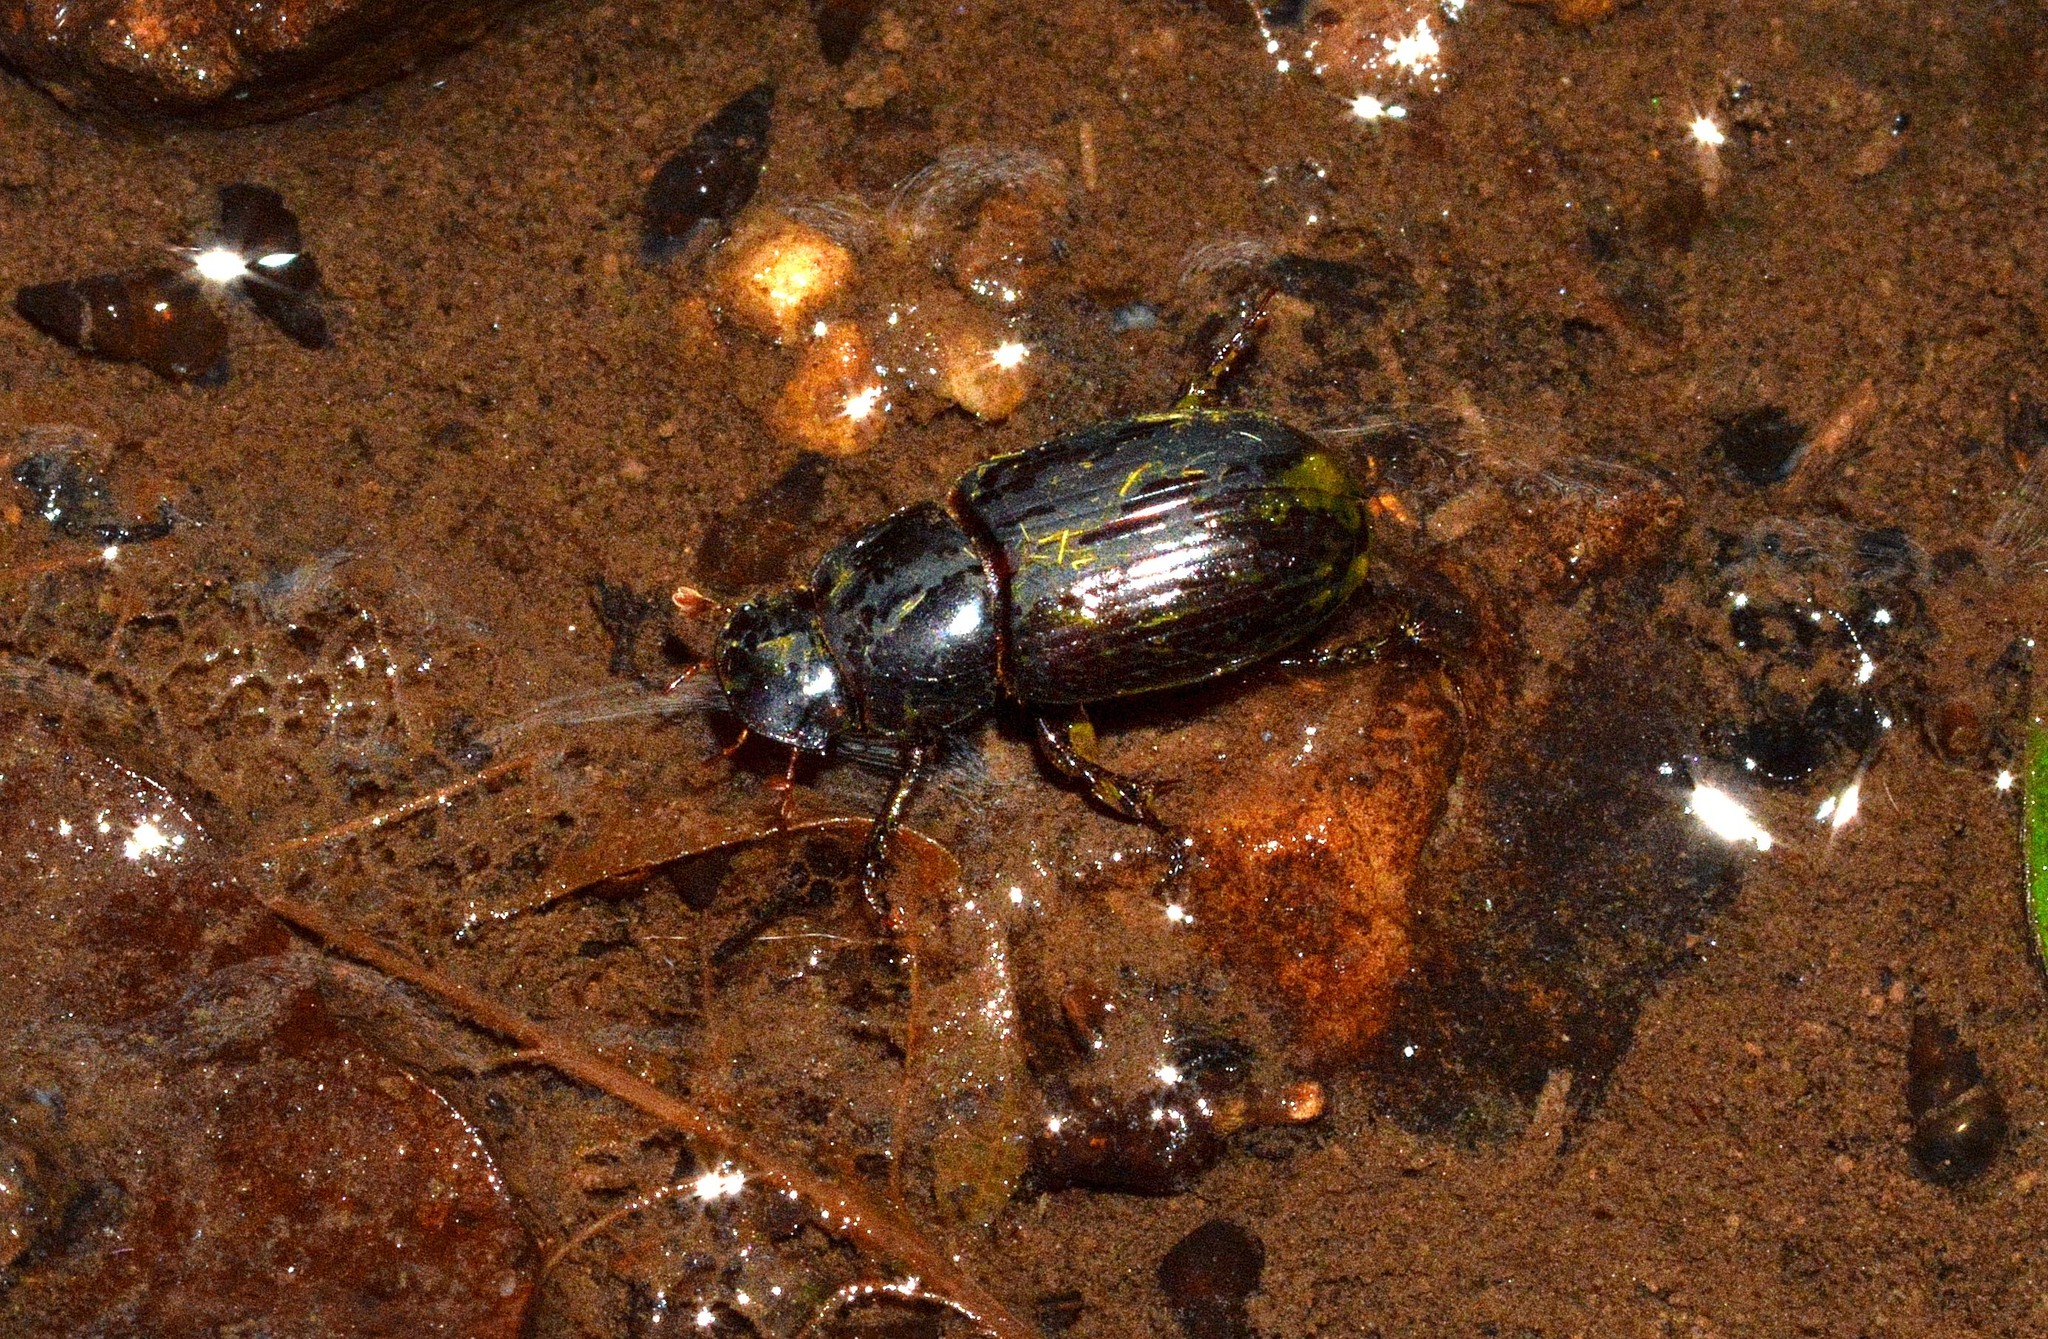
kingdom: Animalia
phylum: Arthropoda
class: Insecta
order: Coleoptera
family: Scarabaeidae
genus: Acrossus
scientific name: Acrossus rufipes
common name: Night-flying dung beetle
